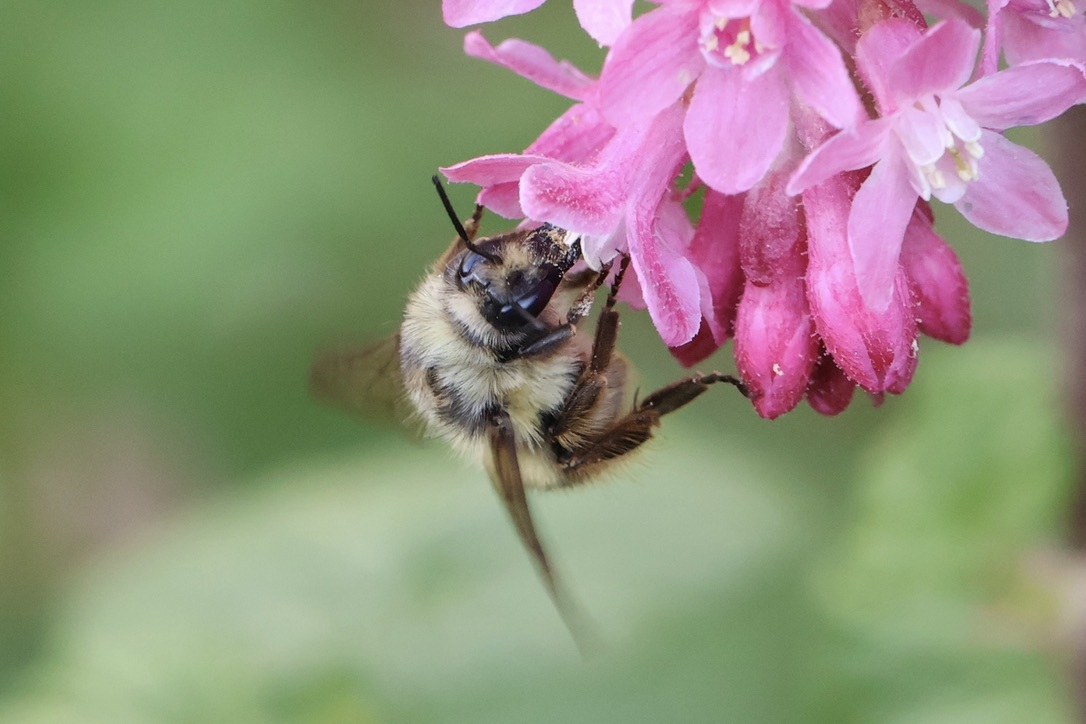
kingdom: Animalia
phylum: Arthropoda
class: Insecta
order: Hymenoptera
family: Apidae
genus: Bombus
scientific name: Bombus mixtus
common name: Fuzzy-horned bumble bee
